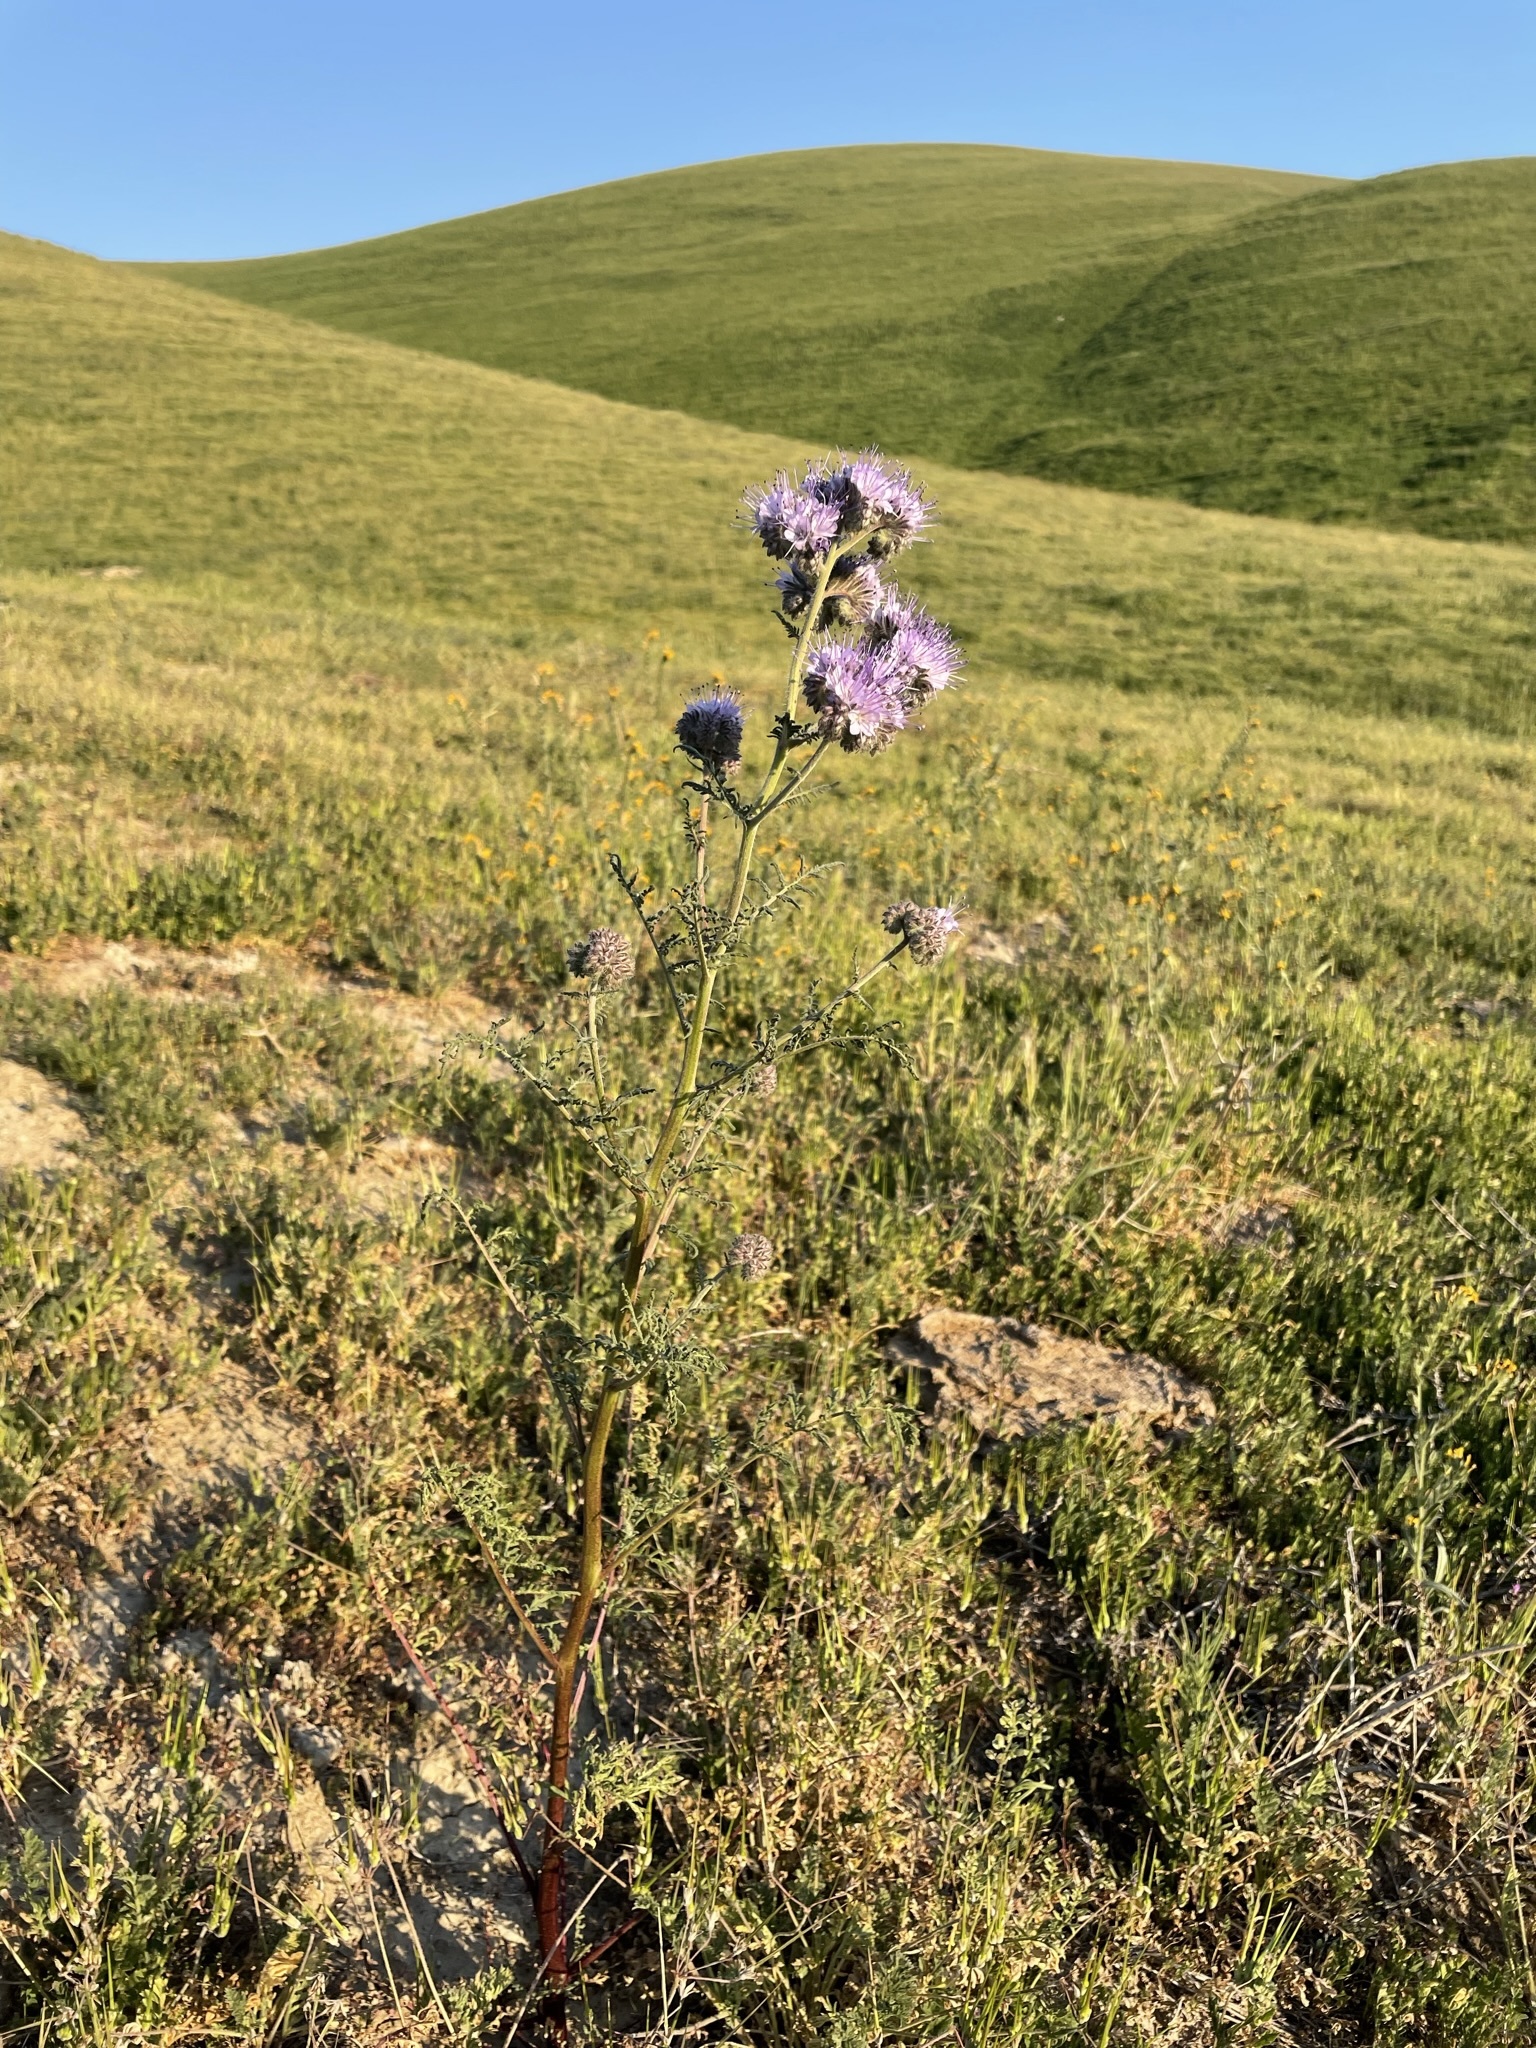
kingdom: Plantae
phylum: Tracheophyta
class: Magnoliopsida
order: Boraginales
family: Hydrophyllaceae
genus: Phacelia
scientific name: Phacelia tanacetifolia
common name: Phacelia
